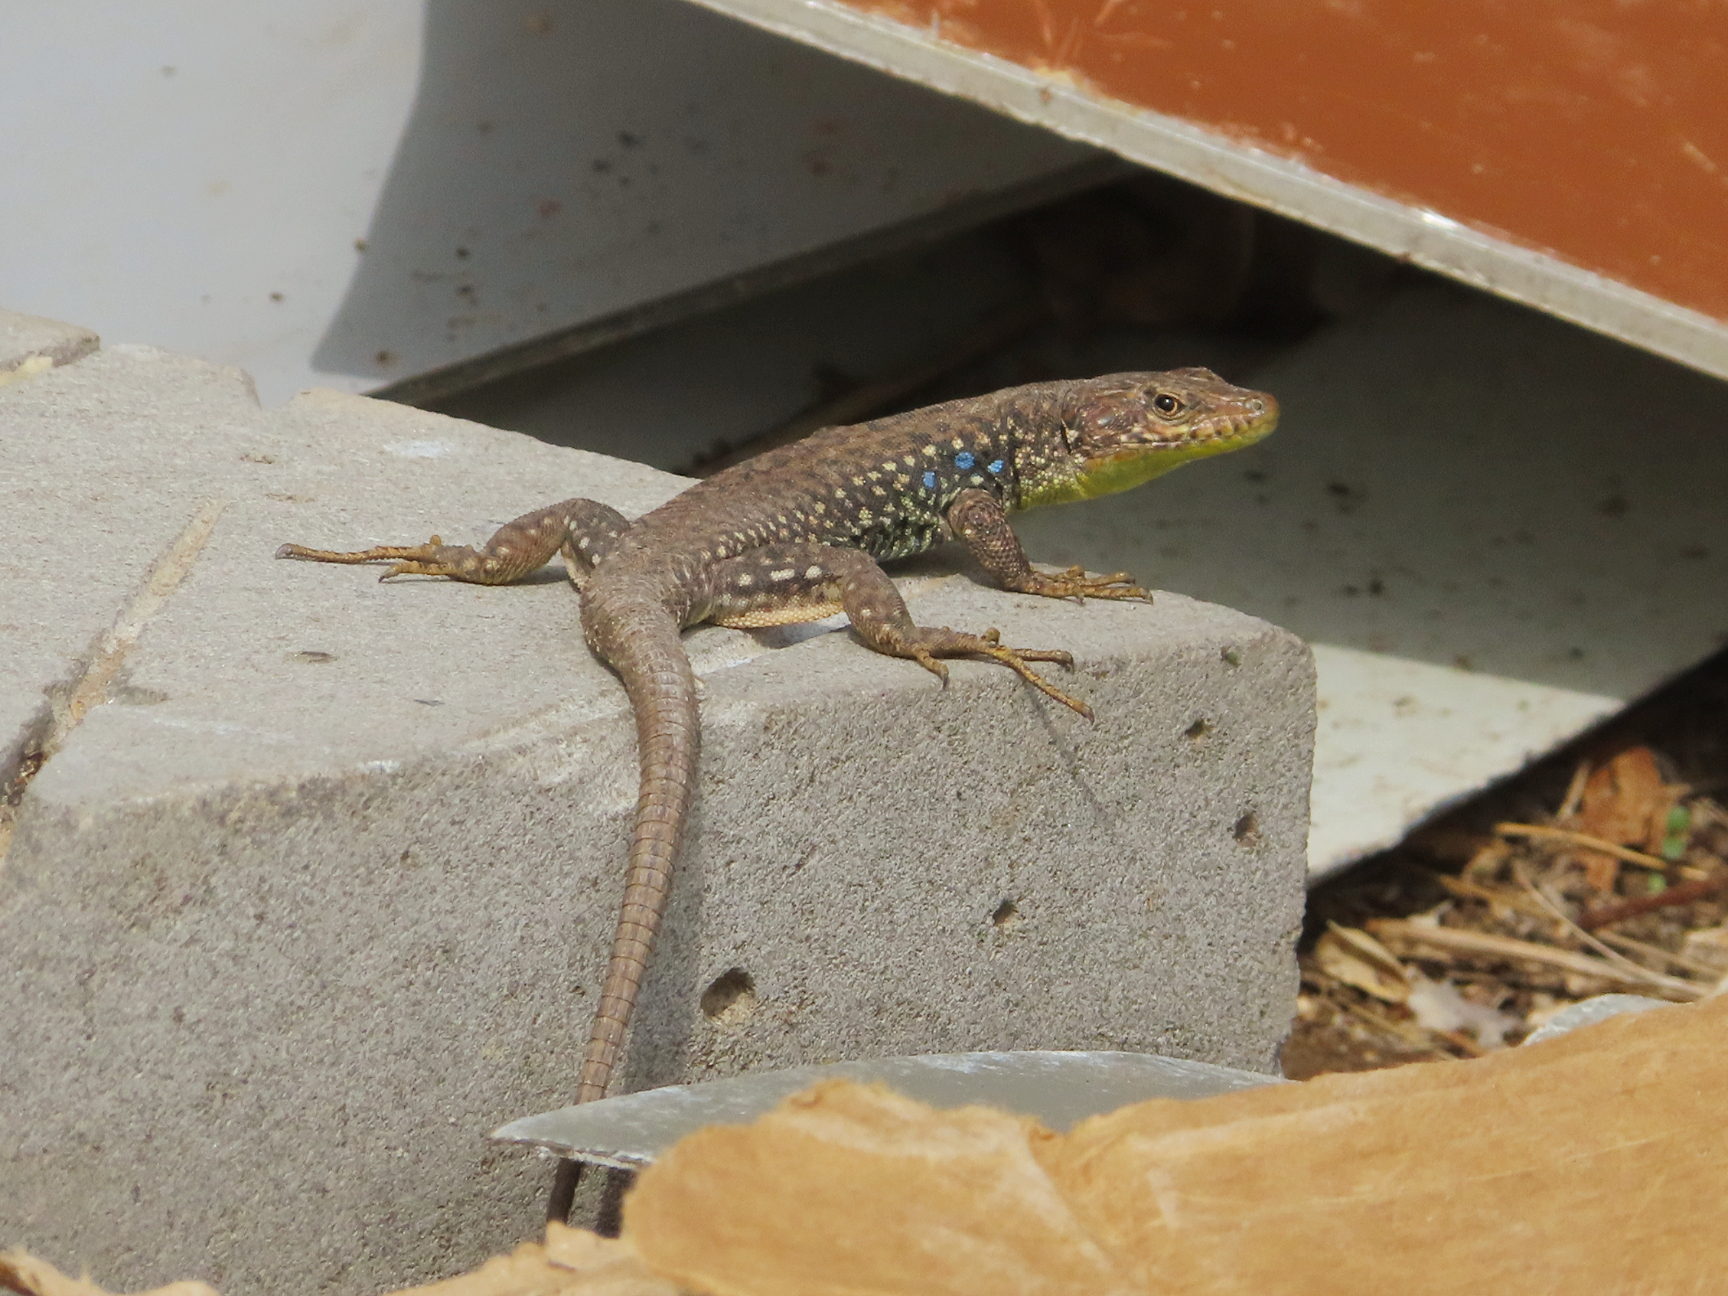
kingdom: Animalia
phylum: Chordata
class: Squamata
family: Lacertidae
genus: Darevskia
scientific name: Darevskia
